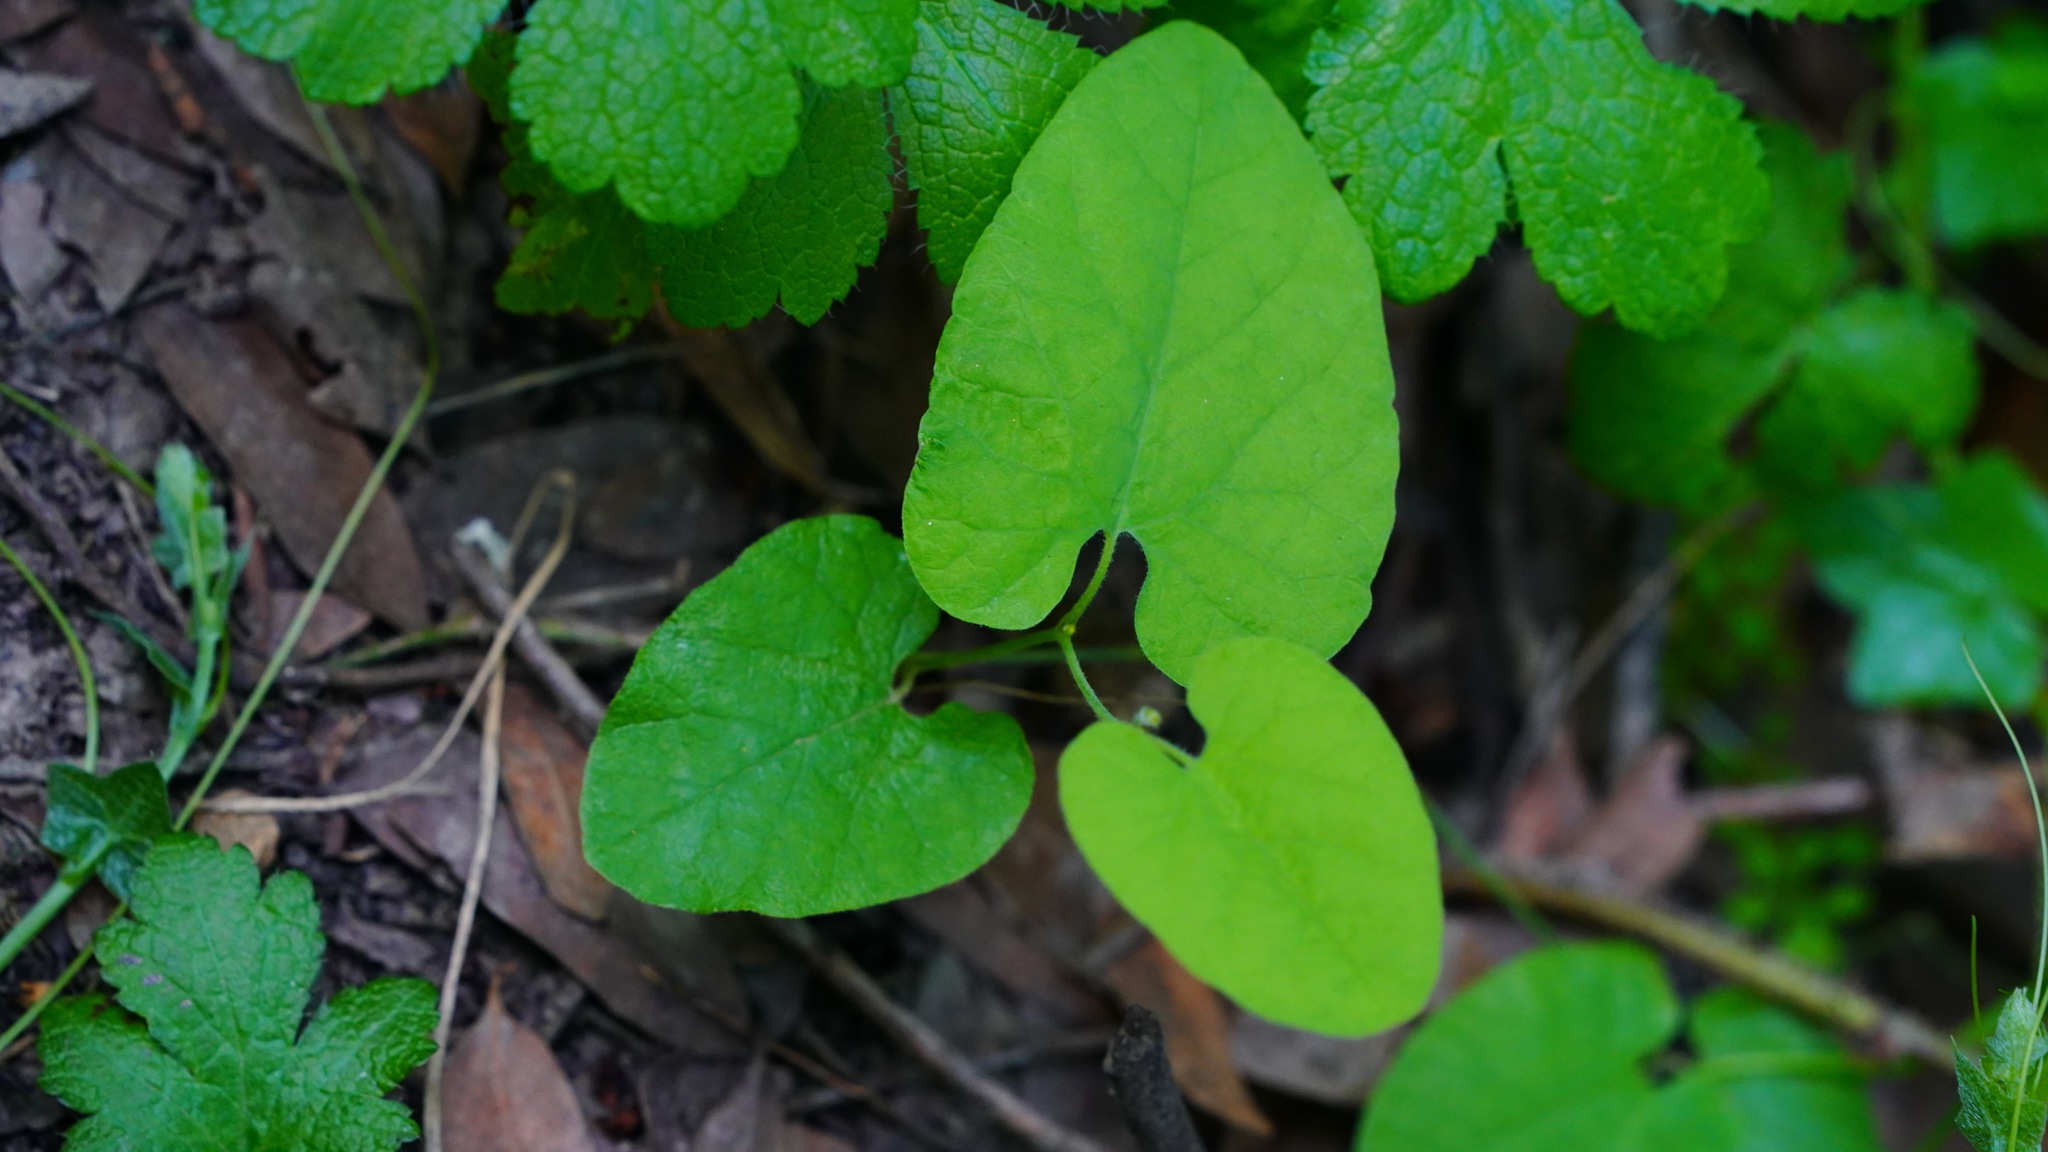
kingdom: Plantae
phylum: Tracheophyta
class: Magnoliopsida
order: Piperales
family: Aristolochiaceae
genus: Isotrema
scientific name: Isotrema californicum
